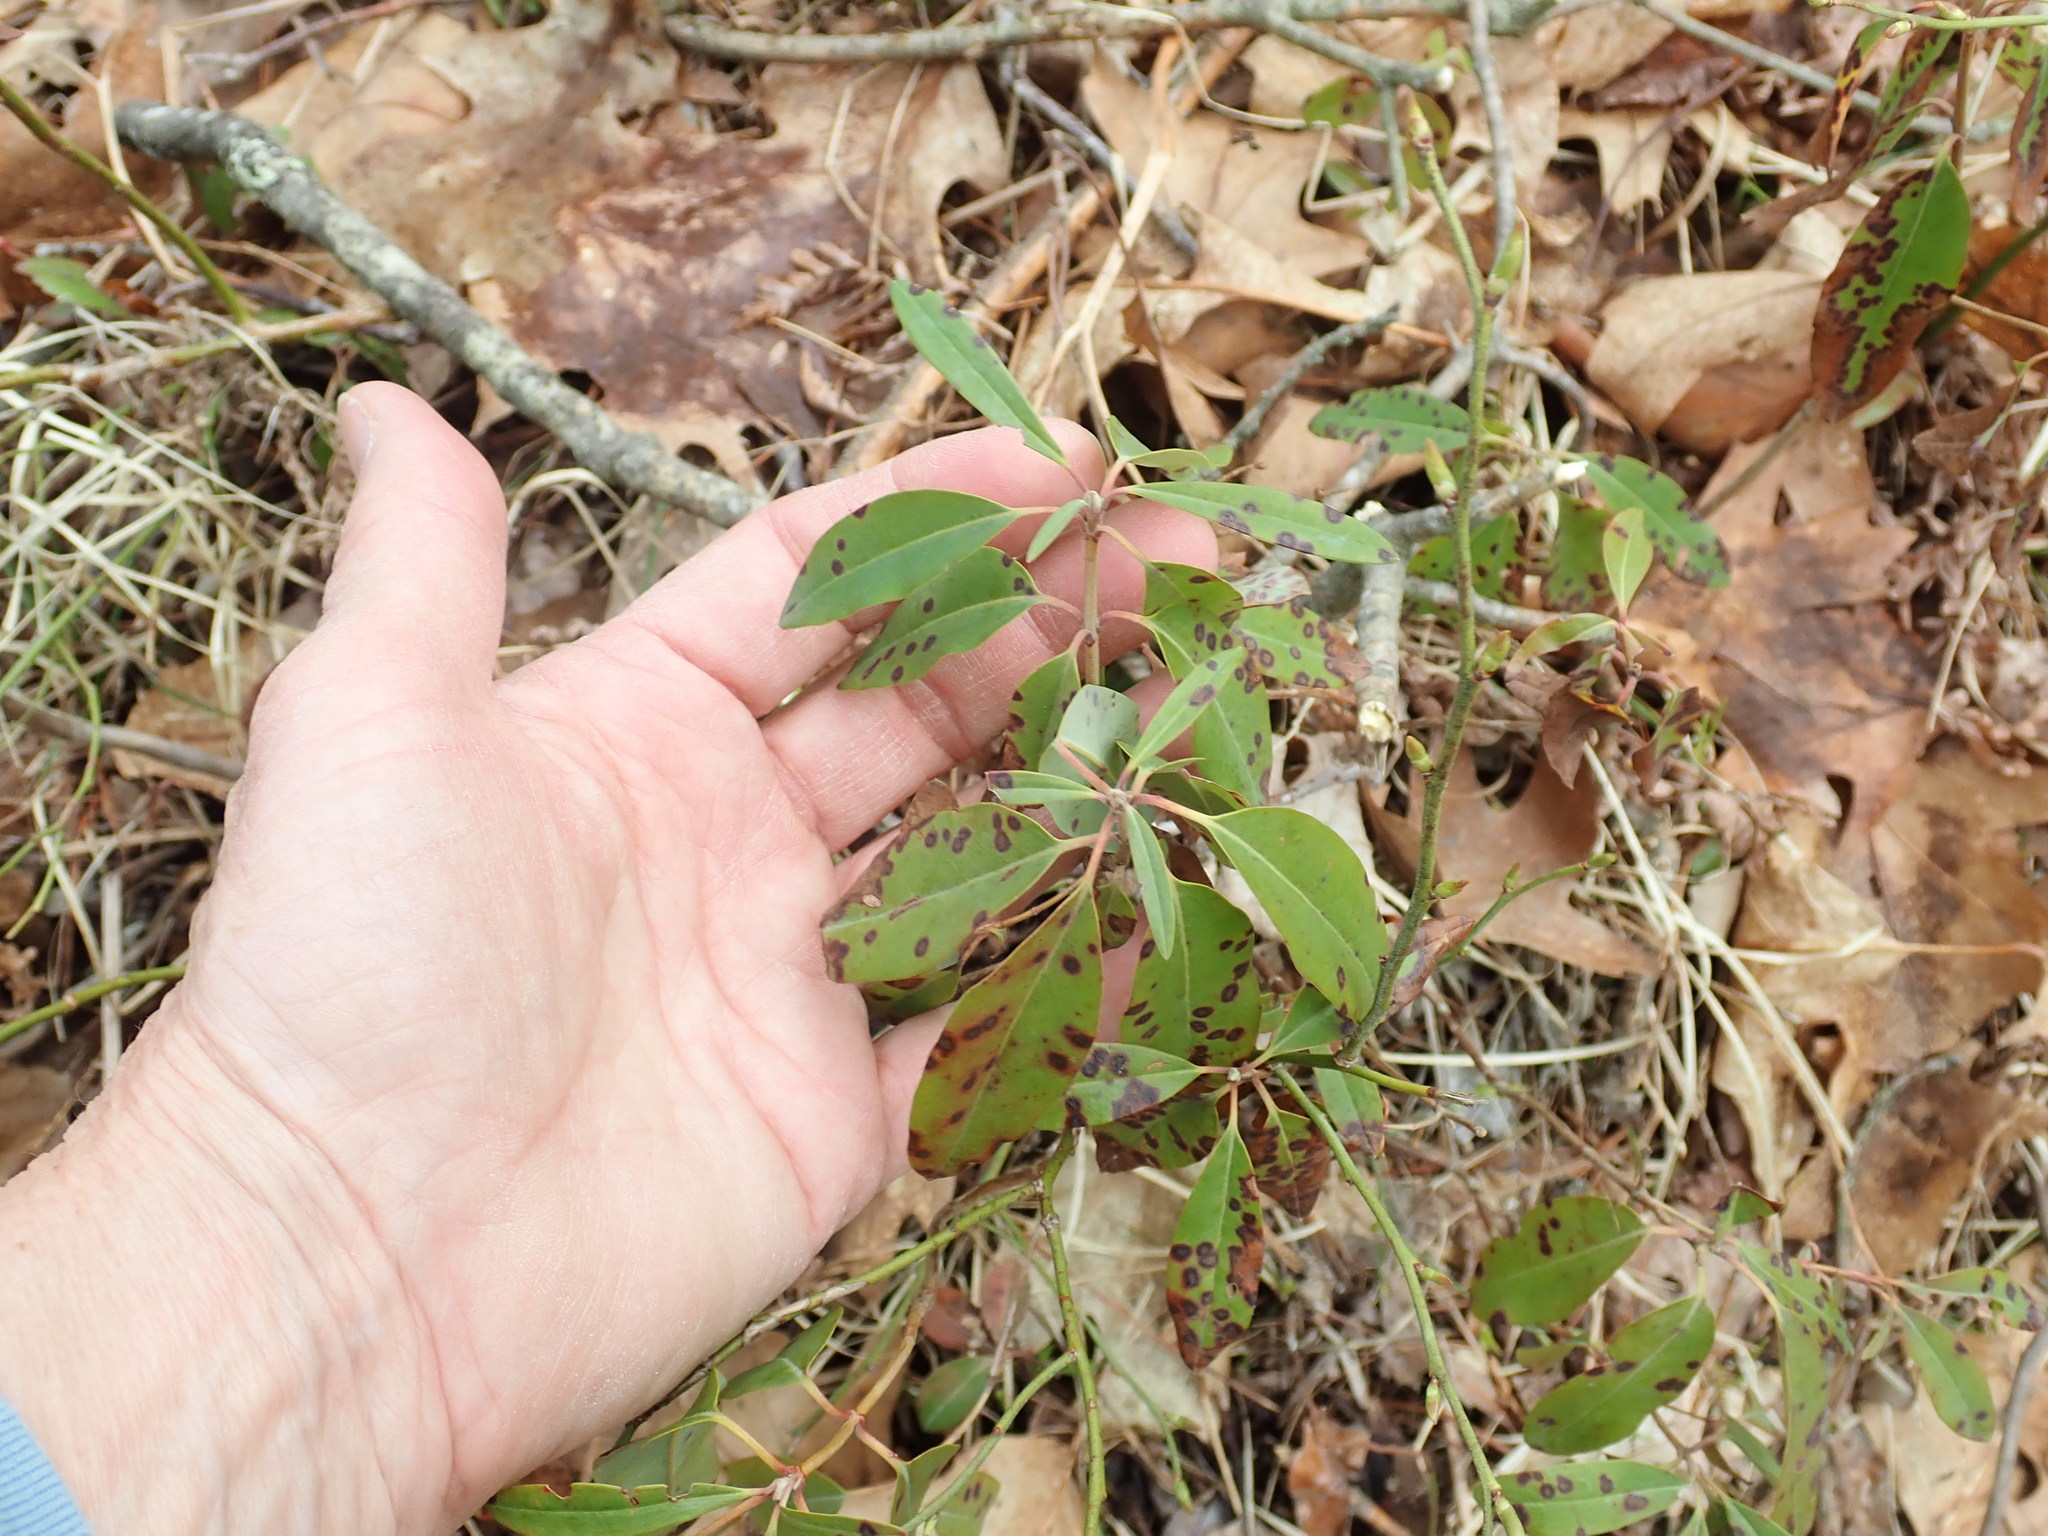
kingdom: Plantae
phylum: Tracheophyta
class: Magnoliopsida
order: Ericales
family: Ericaceae
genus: Kalmia
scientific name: Kalmia angustifolia
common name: Sheep-laurel
